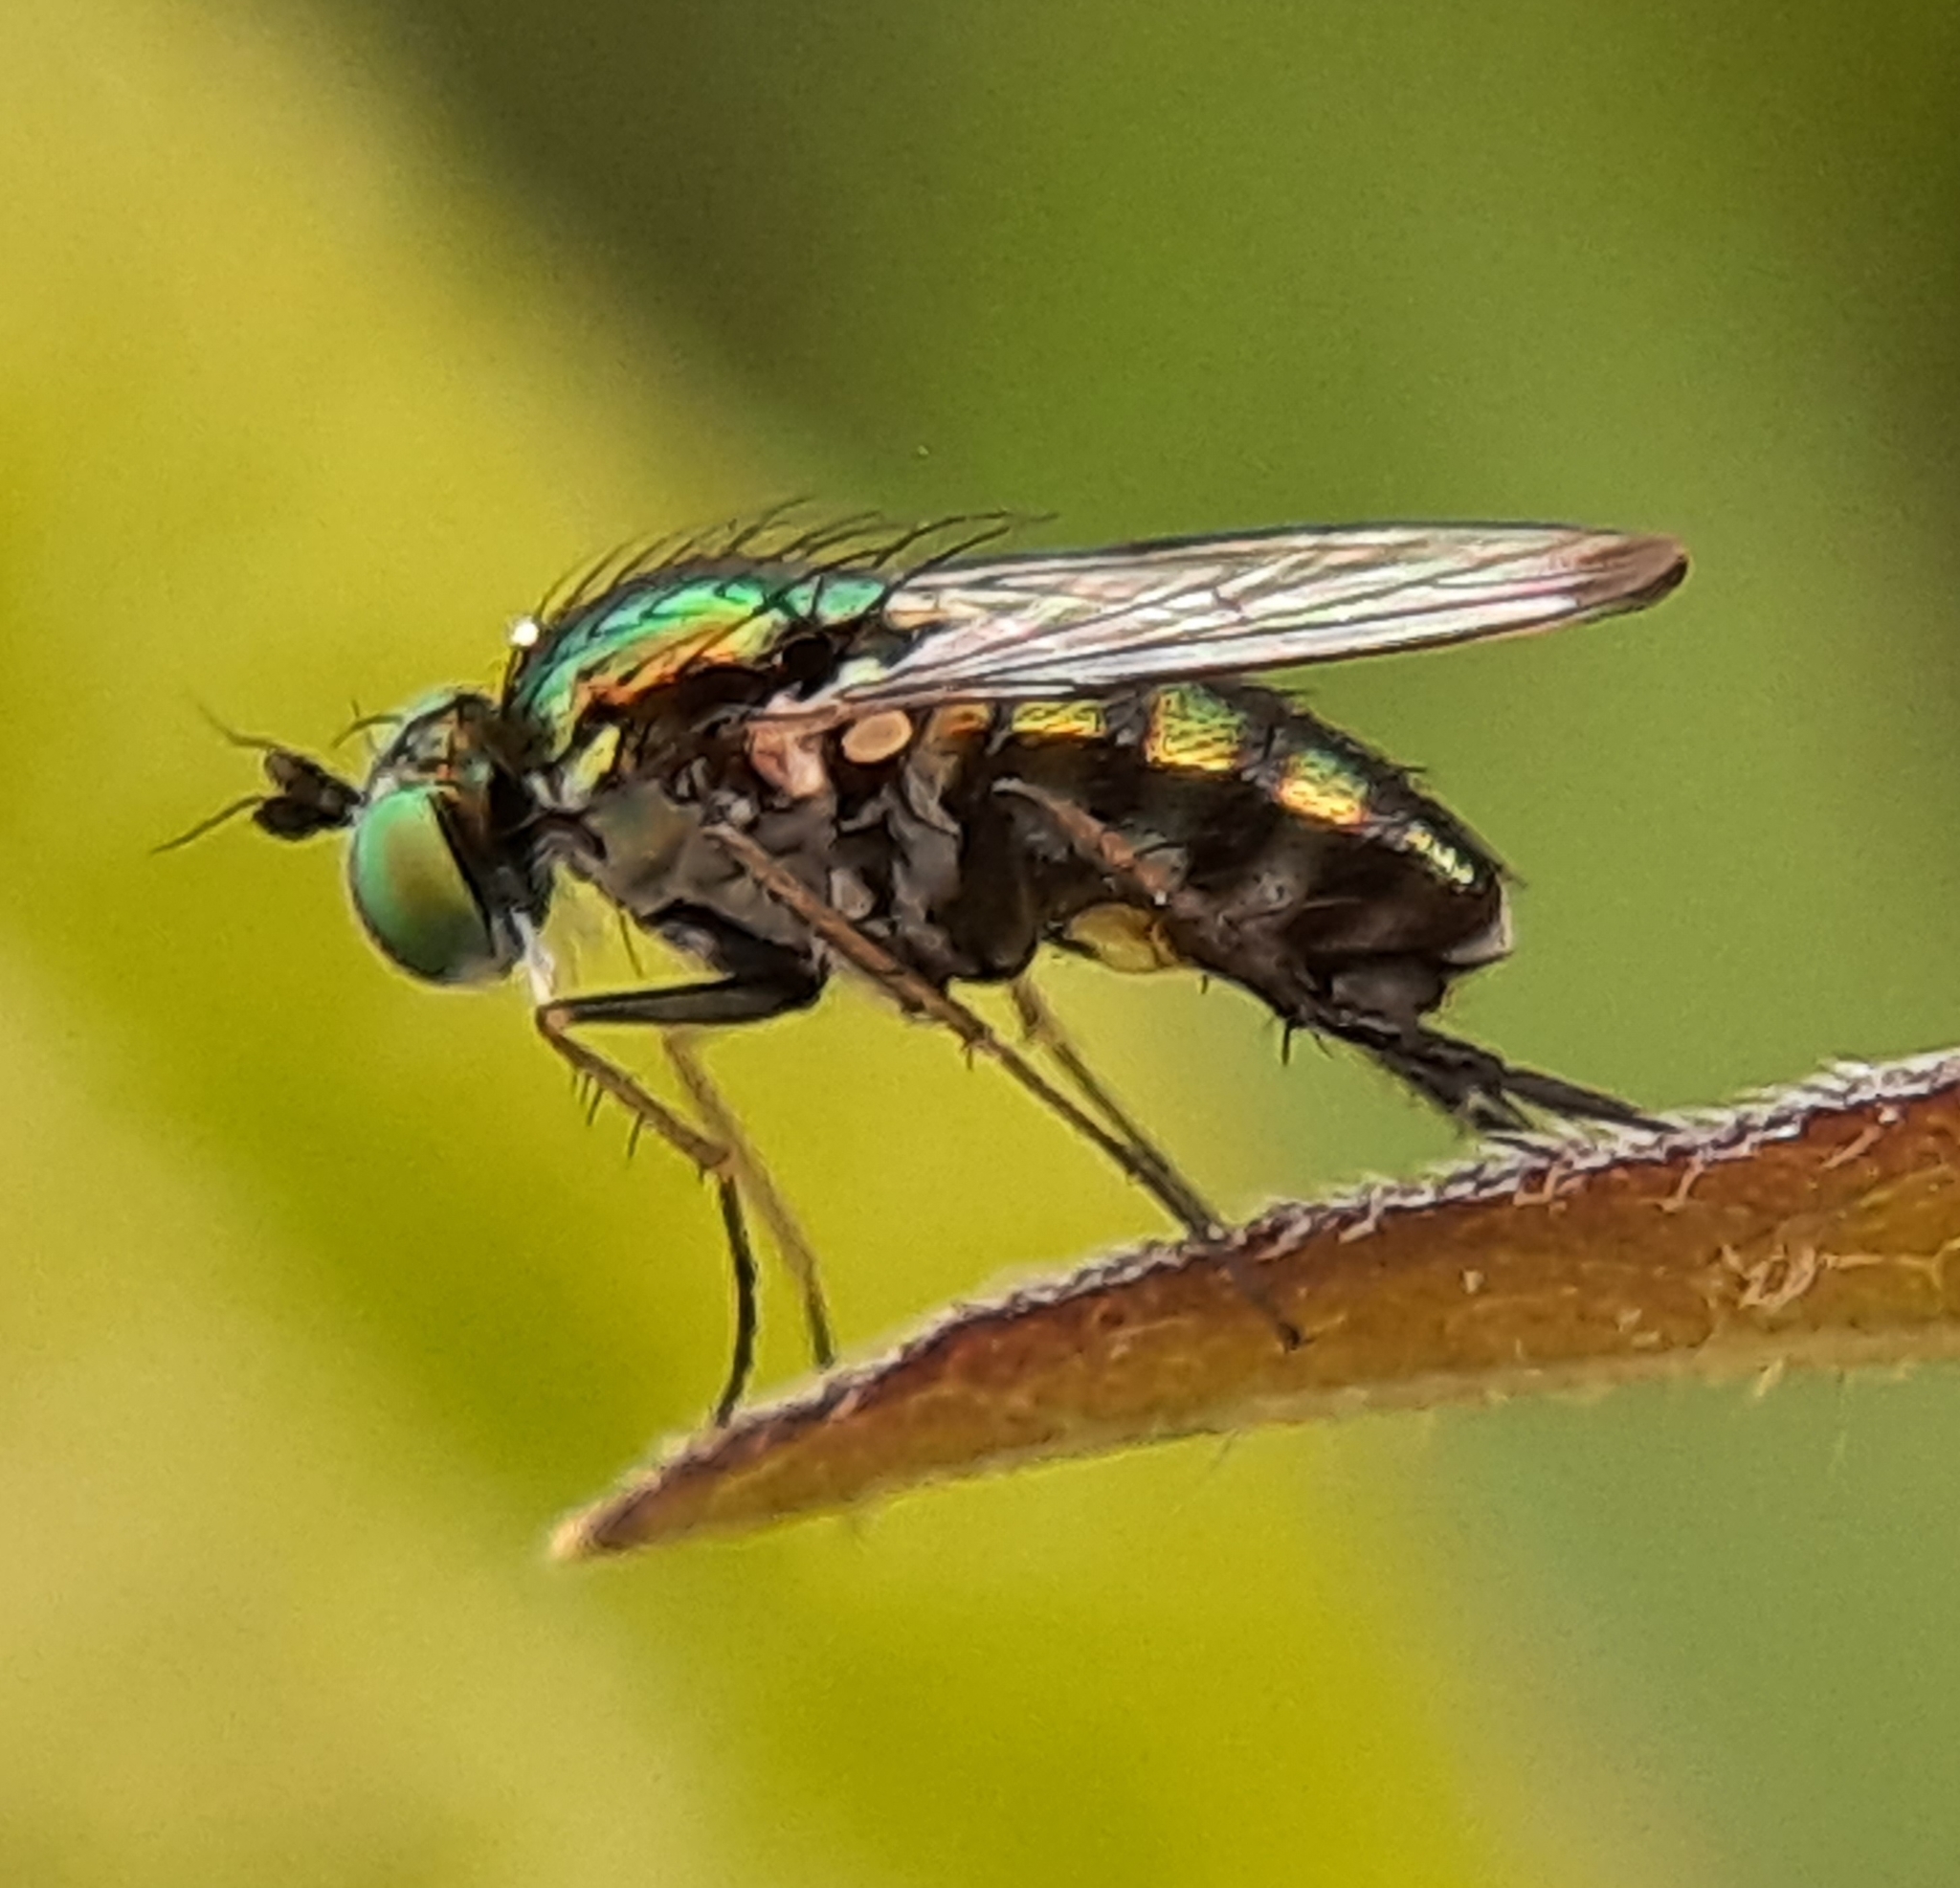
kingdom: Animalia
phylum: Arthropoda
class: Insecta
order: Diptera
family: Dolichopodidae
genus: Dolichopus
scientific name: Dolichopus setifer
